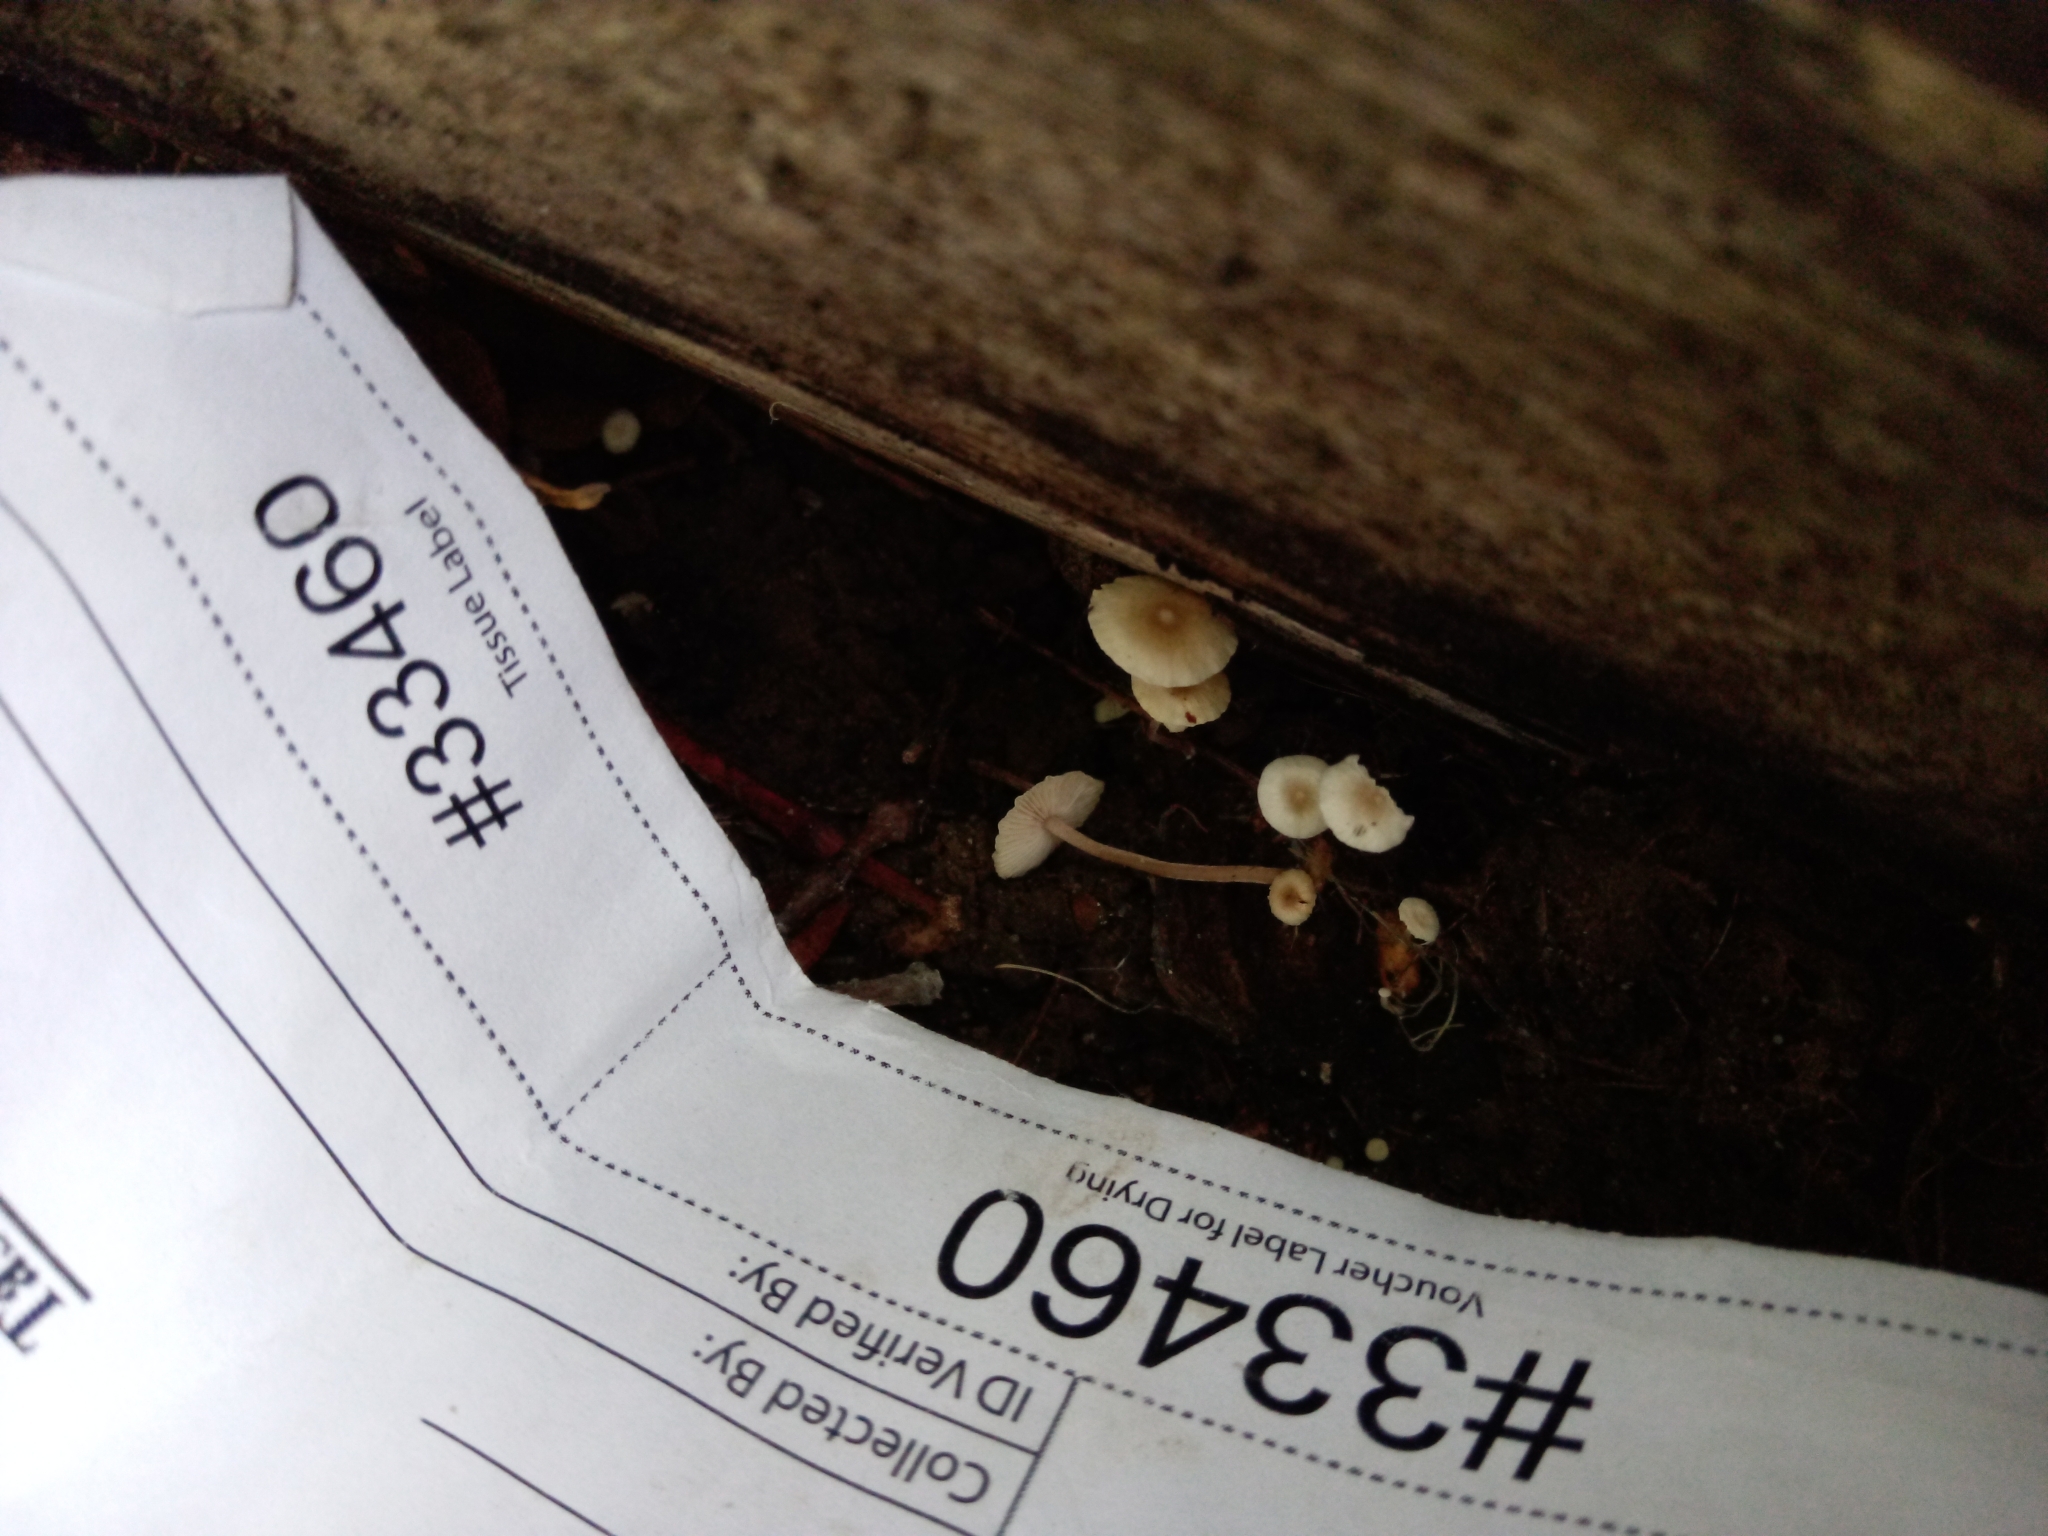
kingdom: Fungi
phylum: Basidiomycota
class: Agaricomycetes
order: Agaricales
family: Tricholomataceae
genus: Collybia
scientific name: Collybia cookei
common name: Splitpea shanklet
